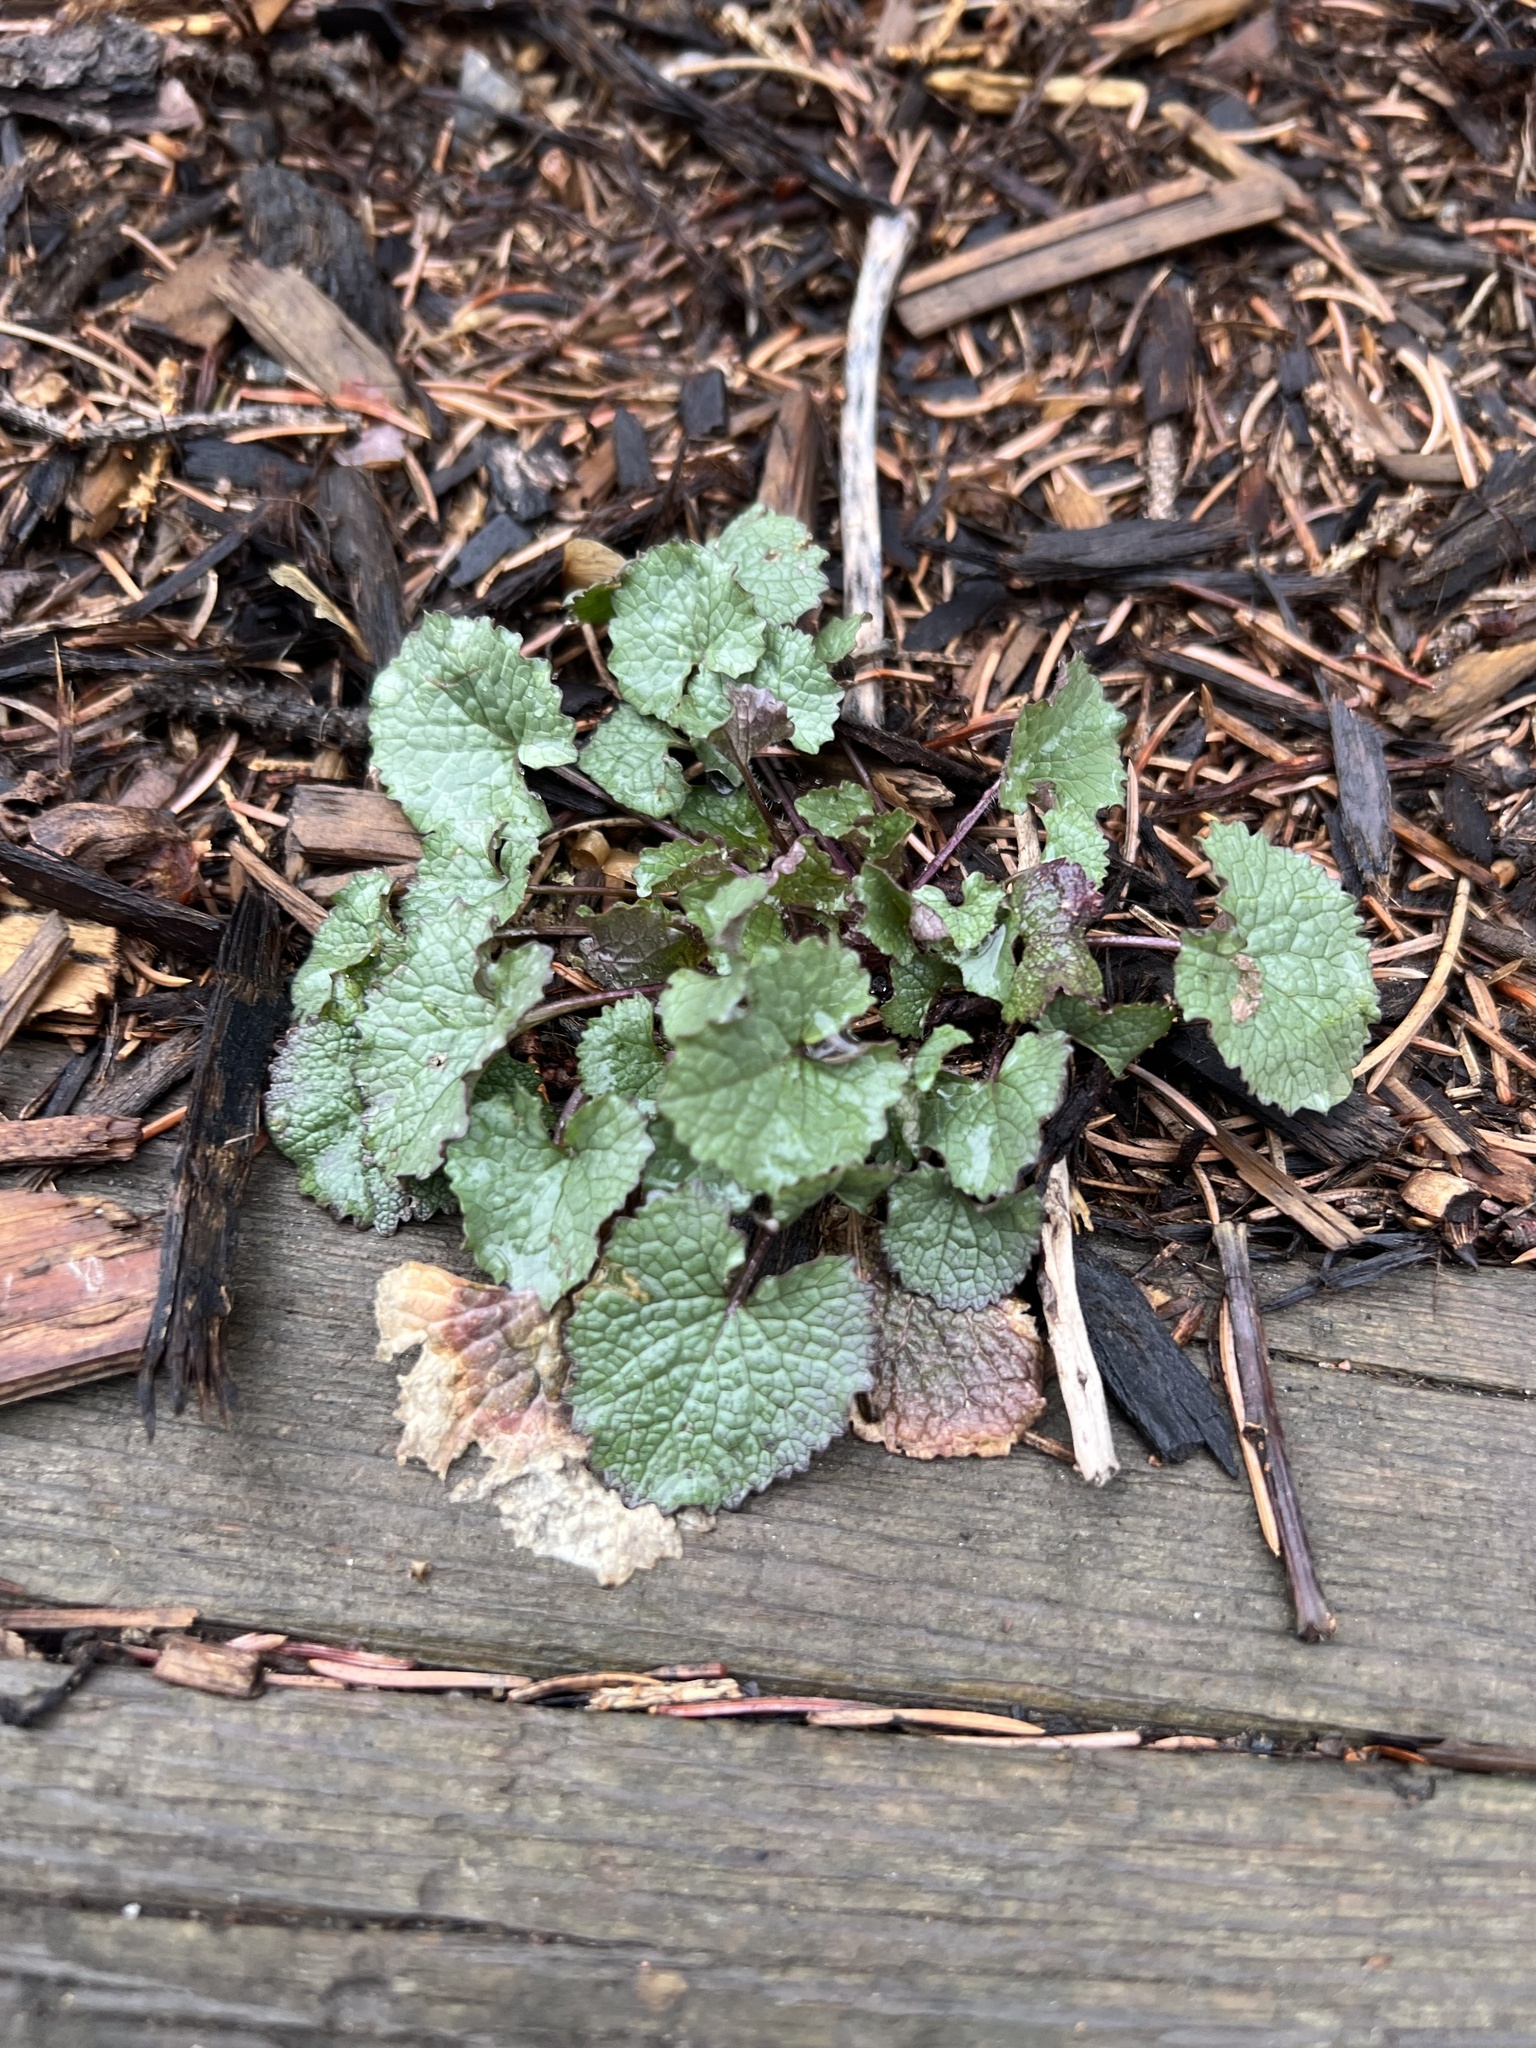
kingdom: Plantae
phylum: Tracheophyta
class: Magnoliopsida
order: Brassicales
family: Brassicaceae
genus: Alliaria
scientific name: Alliaria petiolata
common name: Garlic mustard
